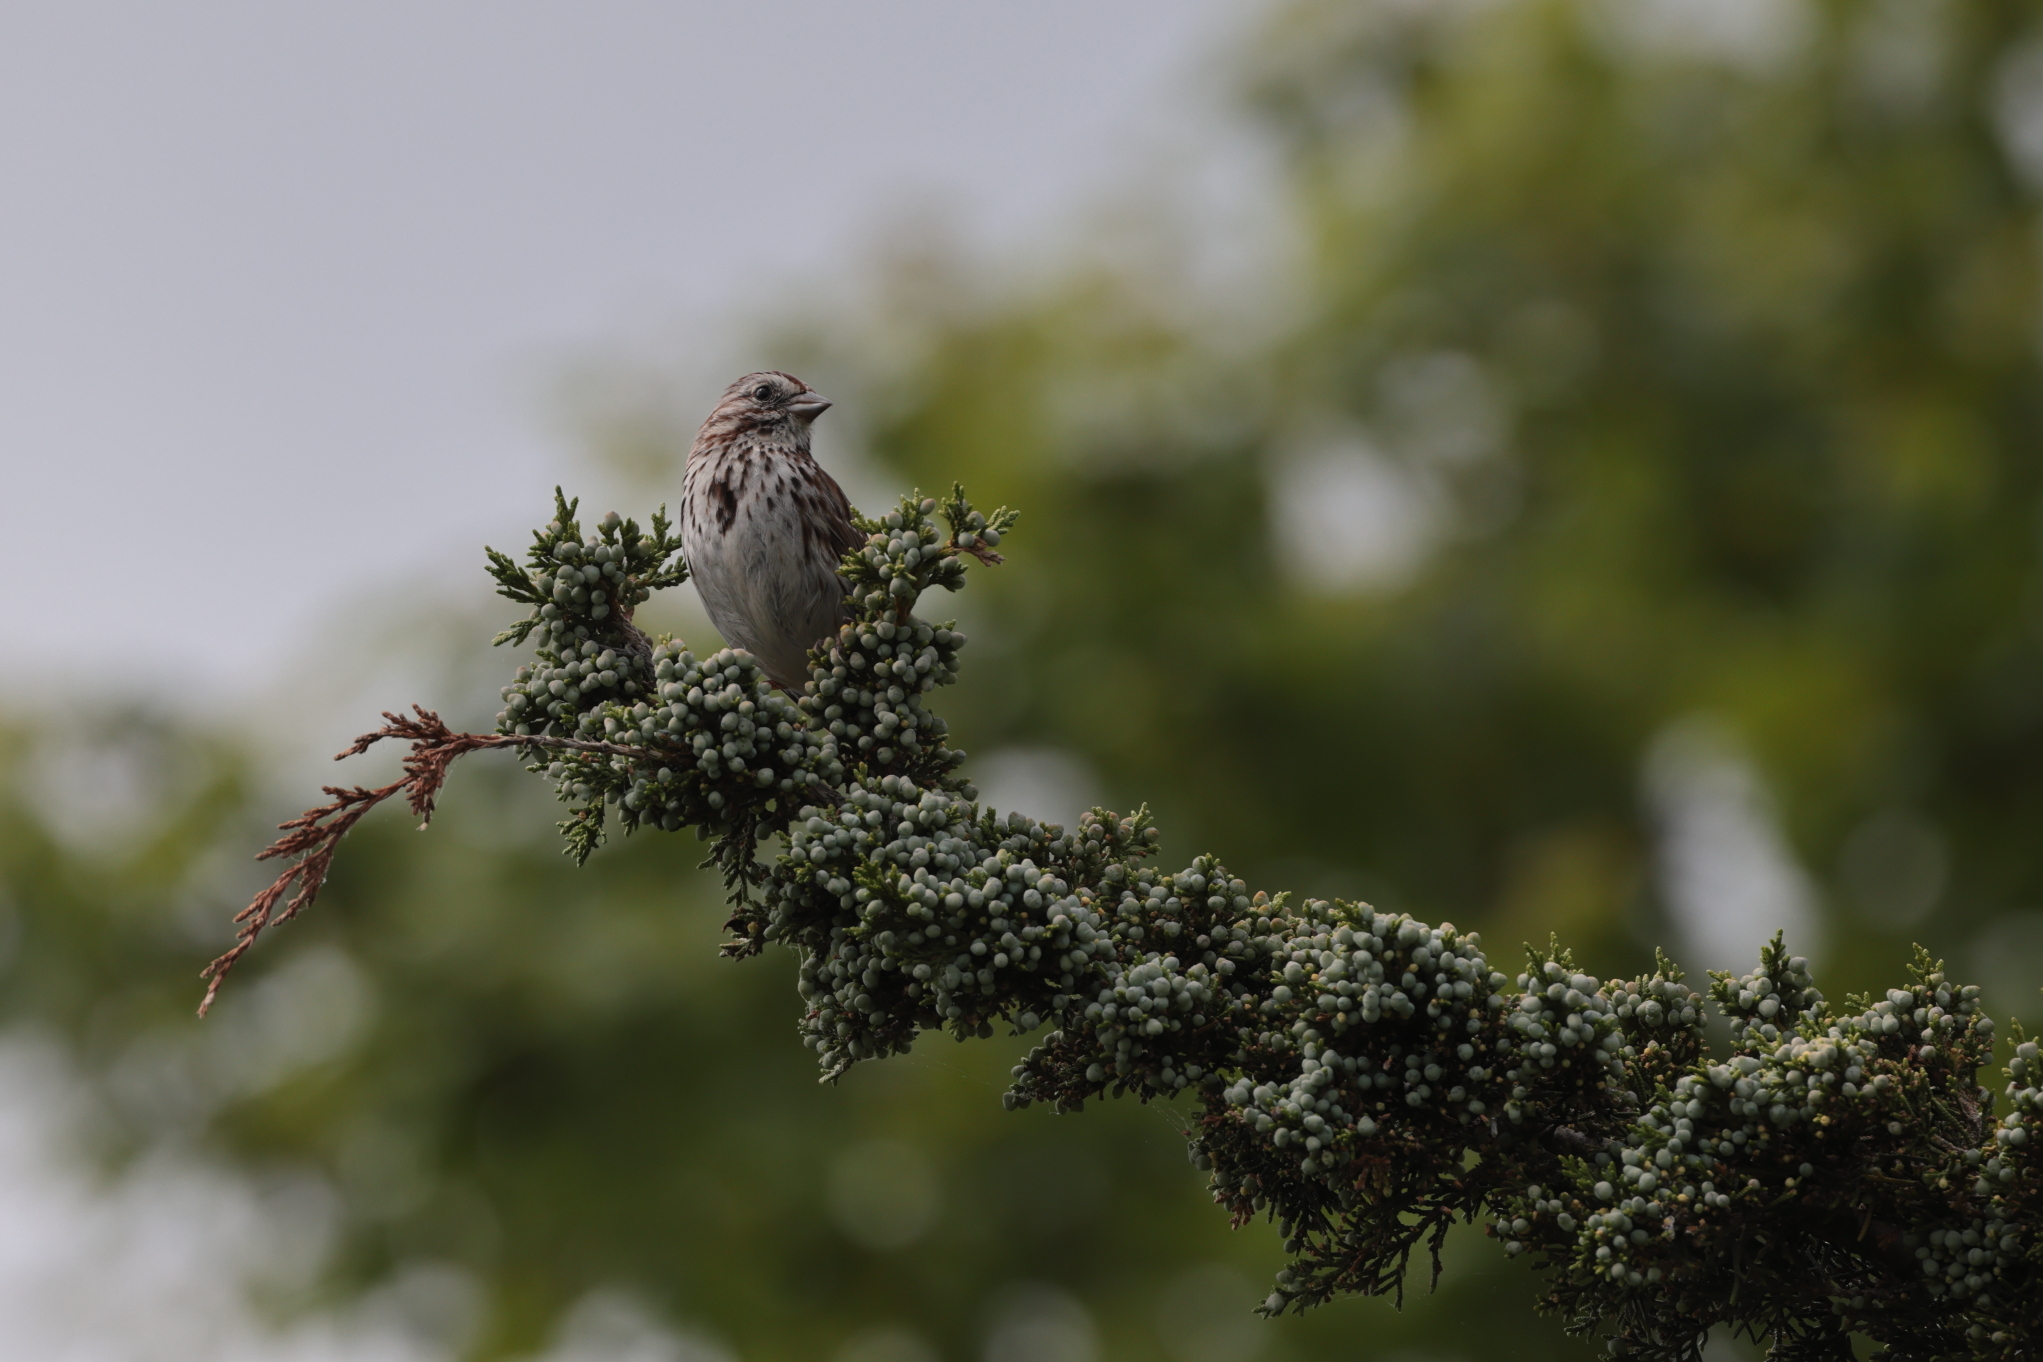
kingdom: Animalia
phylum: Chordata
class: Aves
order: Passeriformes
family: Passerellidae
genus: Melospiza
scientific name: Melospiza melodia
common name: Song sparrow
